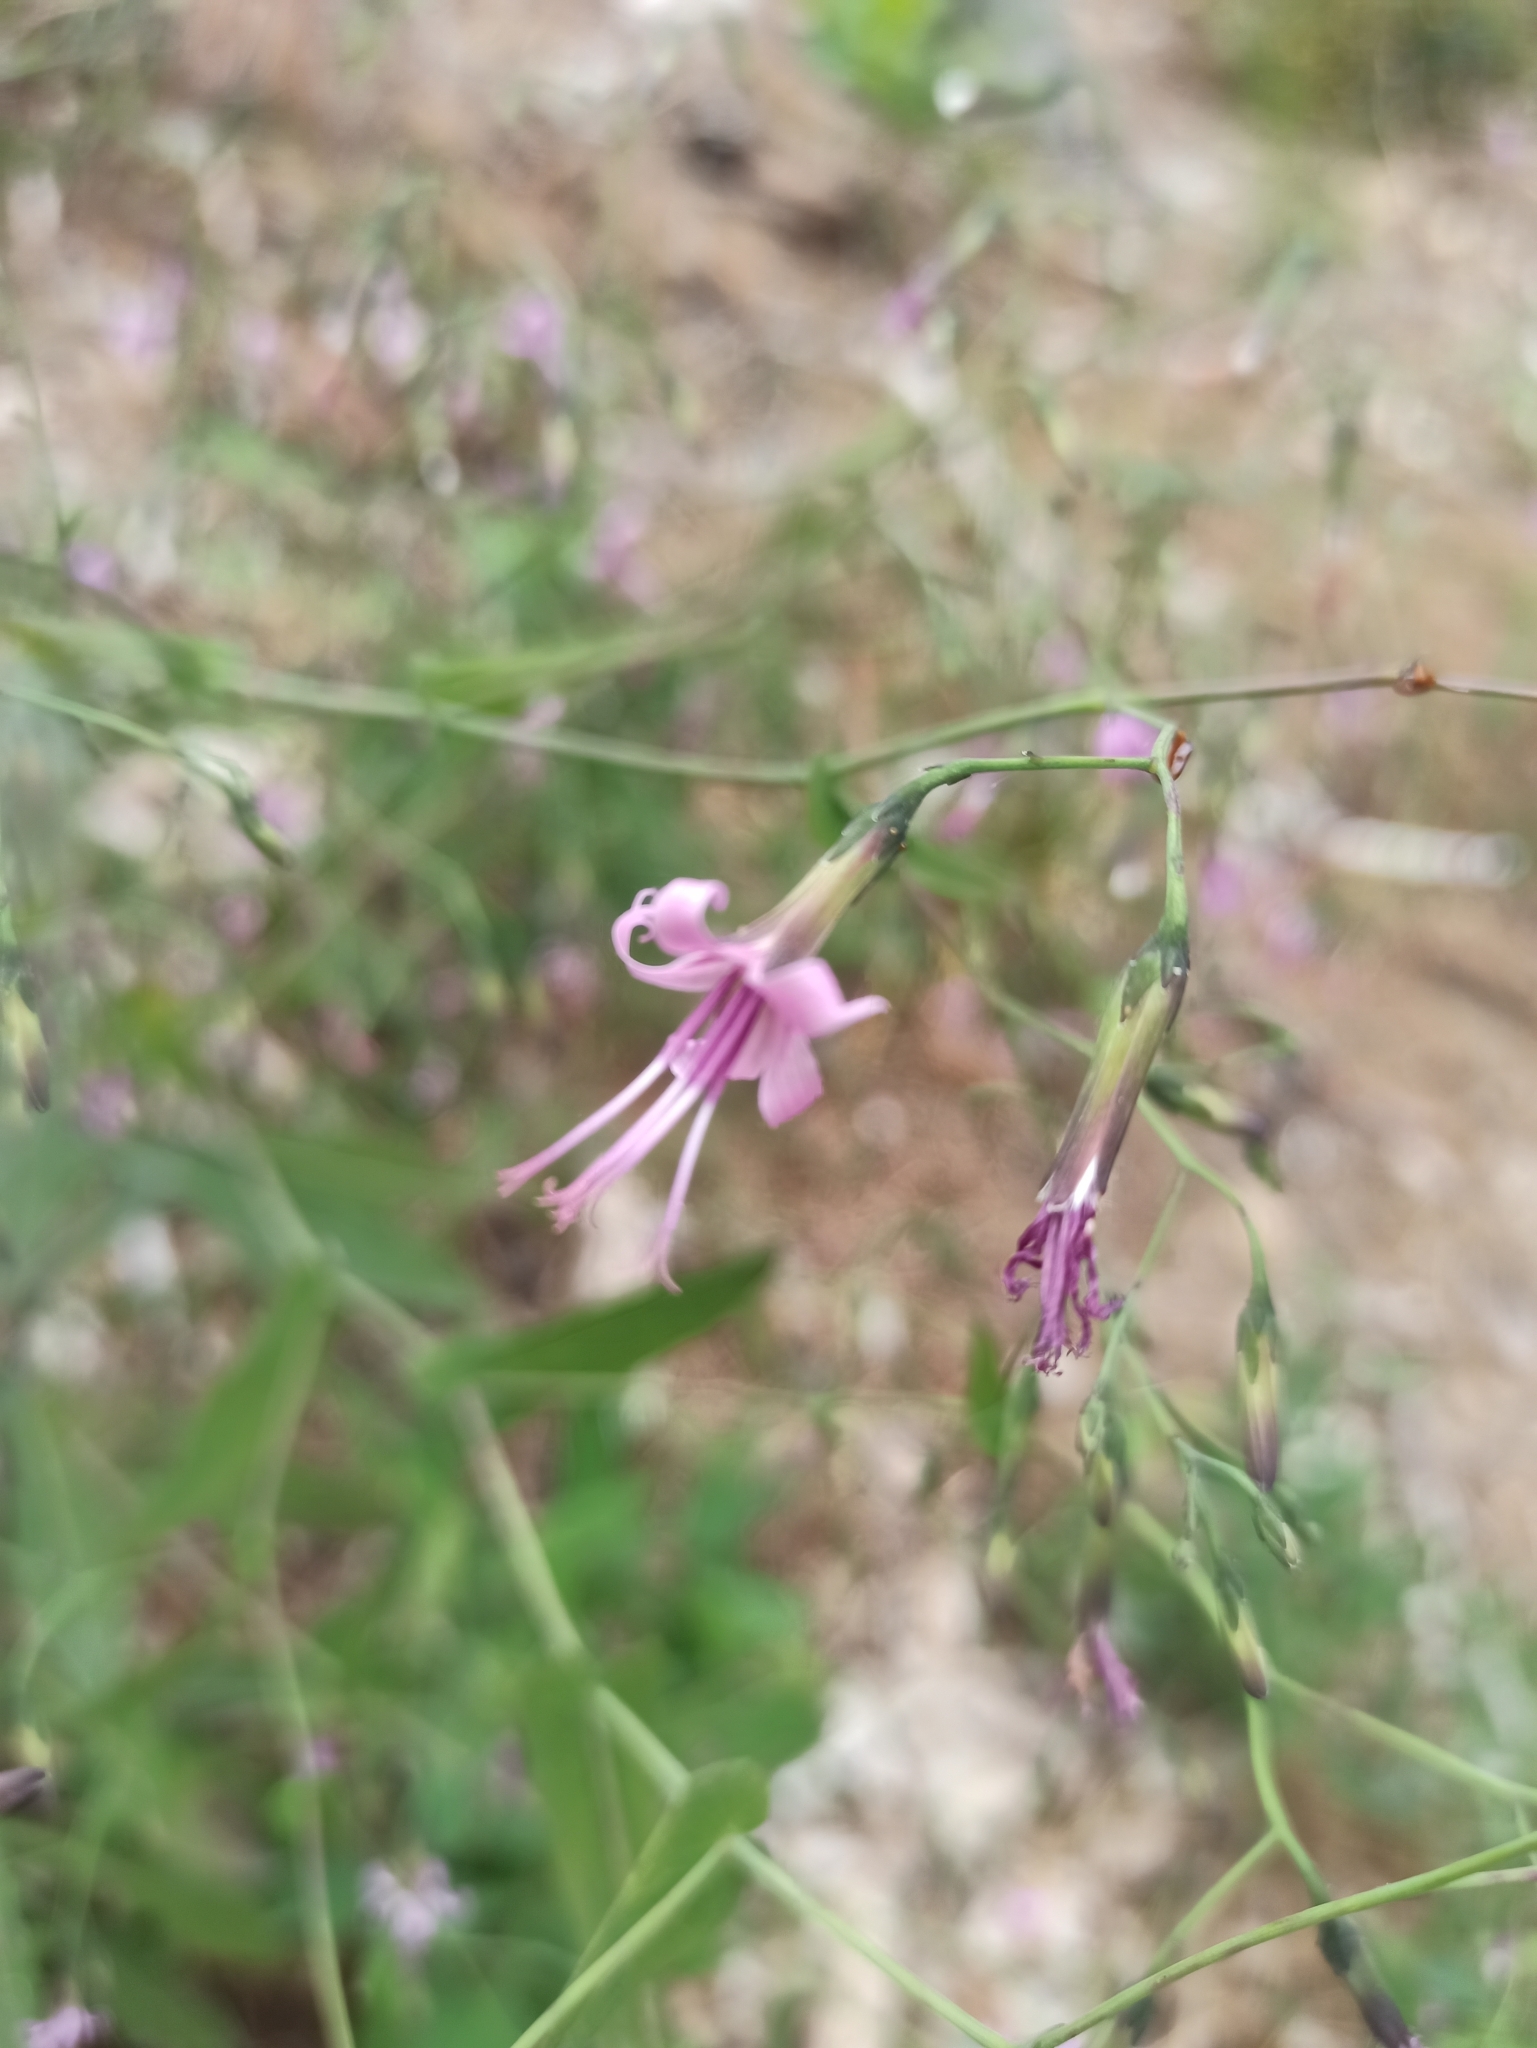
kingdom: Plantae
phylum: Tracheophyta
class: Magnoliopsida
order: Asterales
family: Asteraceae
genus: Prenanthes
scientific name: Prenanthes purpurea
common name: Purple lettuce
